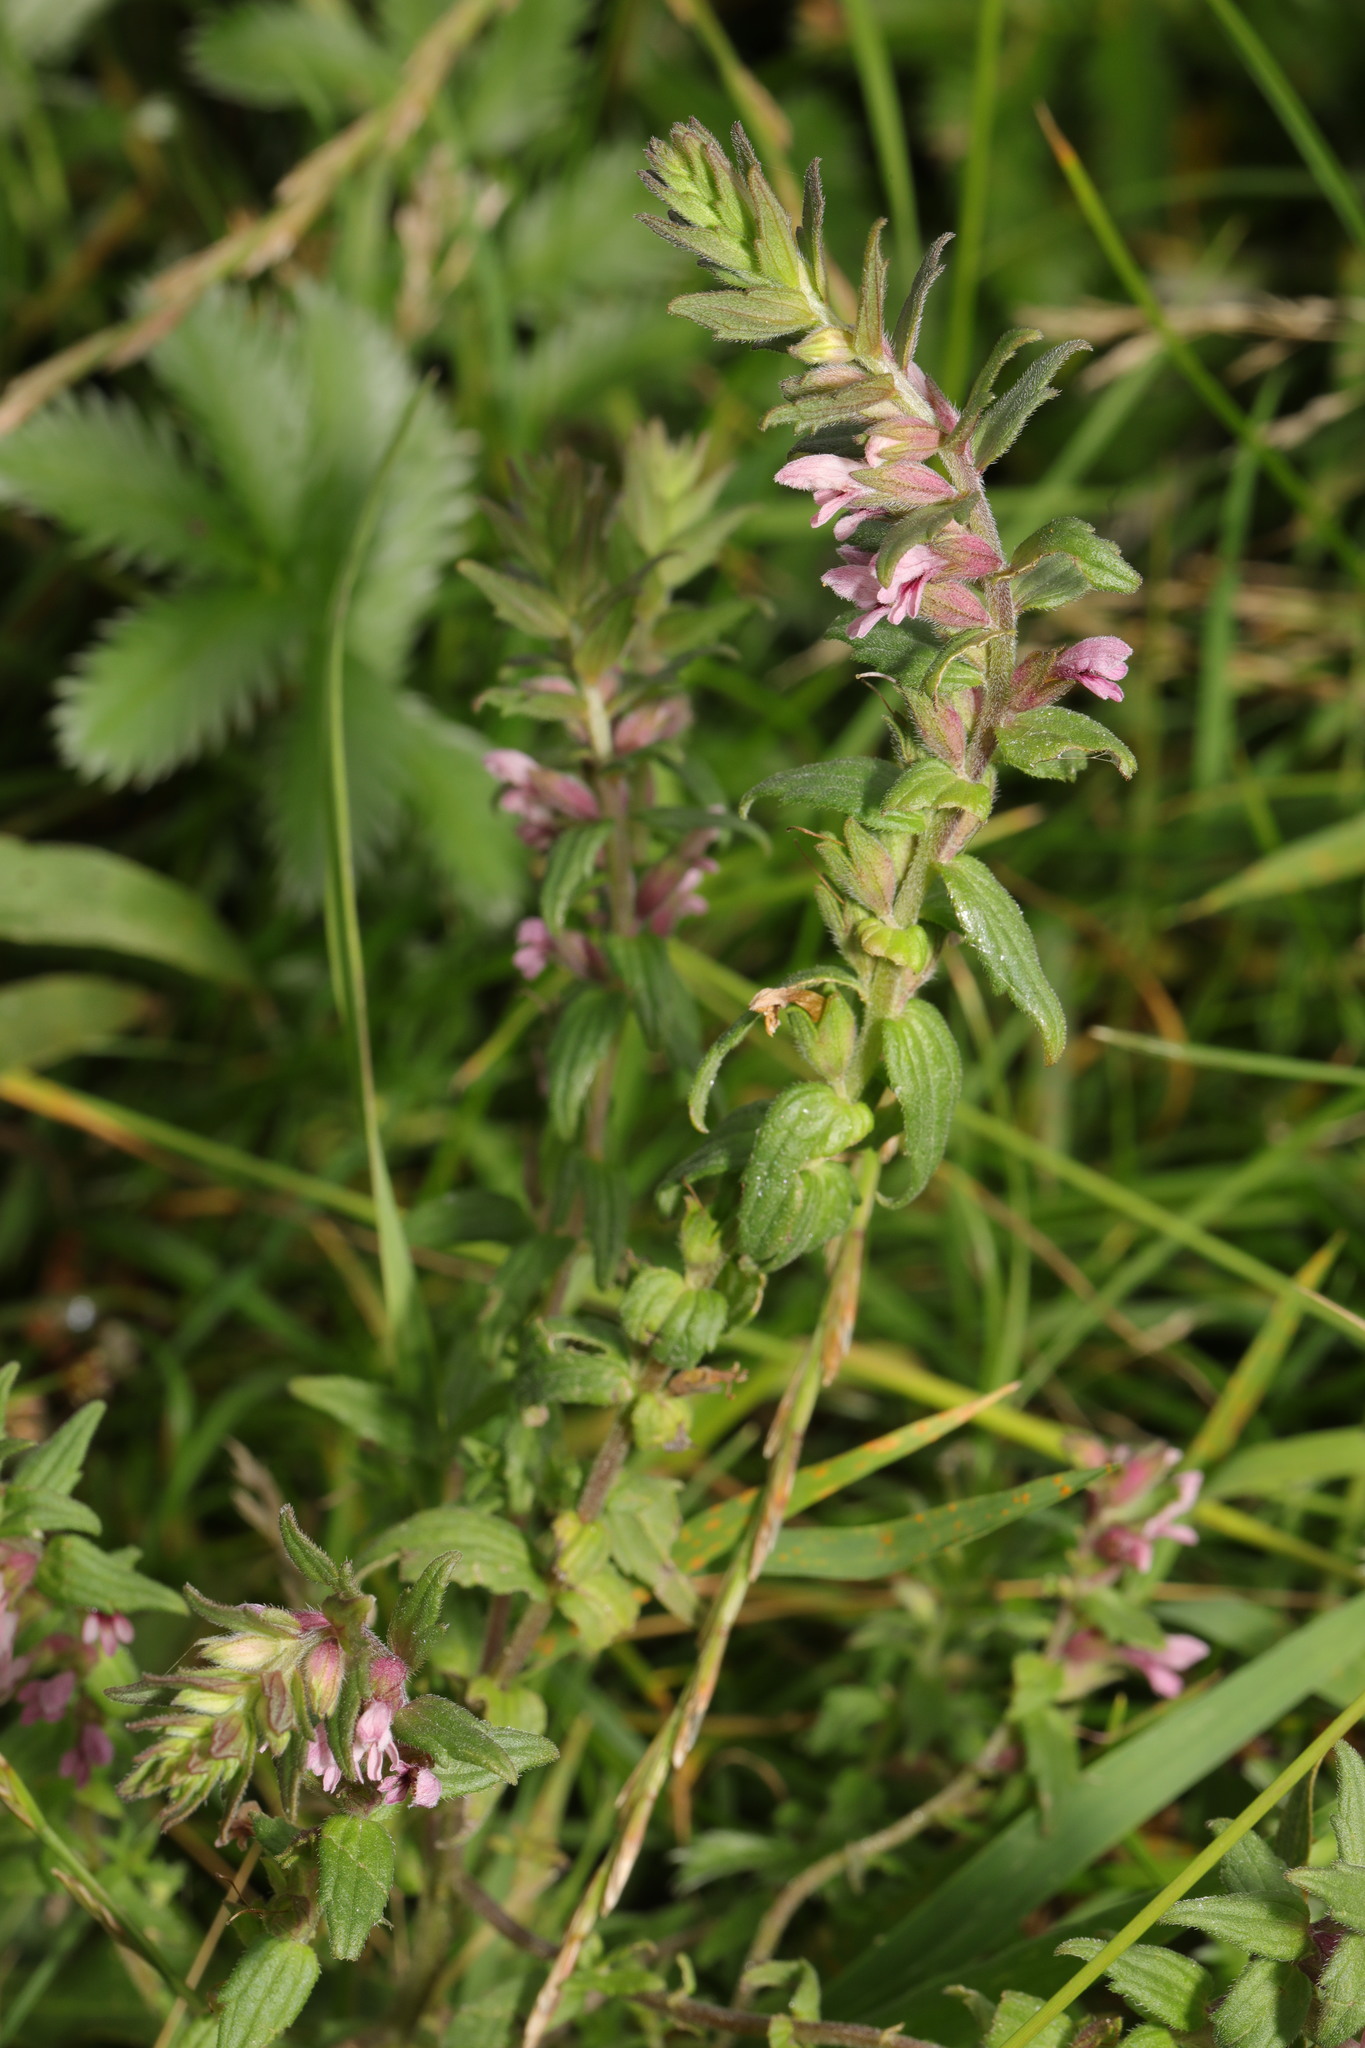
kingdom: Plantae
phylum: Tracheophyta
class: Magnoliopsida
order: Lamiales
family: Orobanchaceae
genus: Odontites
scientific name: Odontites vulgaris
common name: Broomrape
